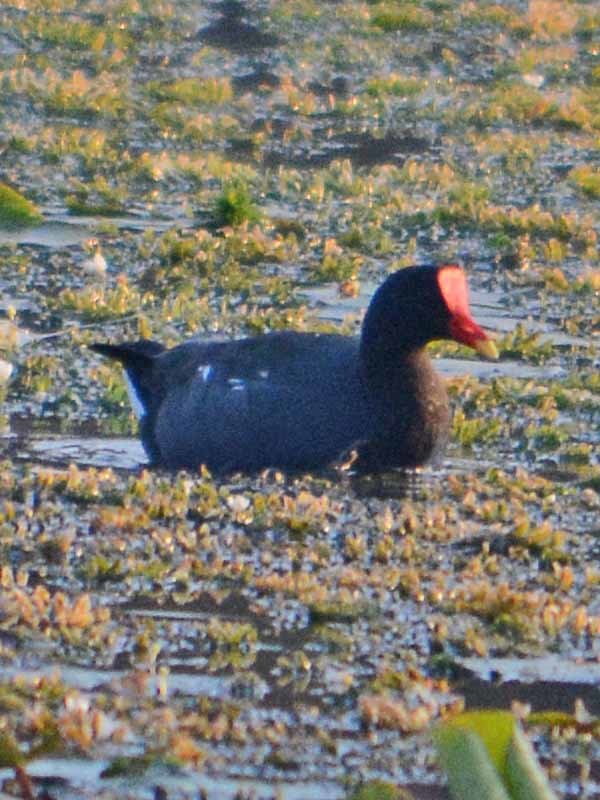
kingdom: Animalia
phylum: Chordata
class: Aves
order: Gruiformes
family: Rallidae
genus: Gallinula
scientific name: Gallinula chloropus
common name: Common moorhen
